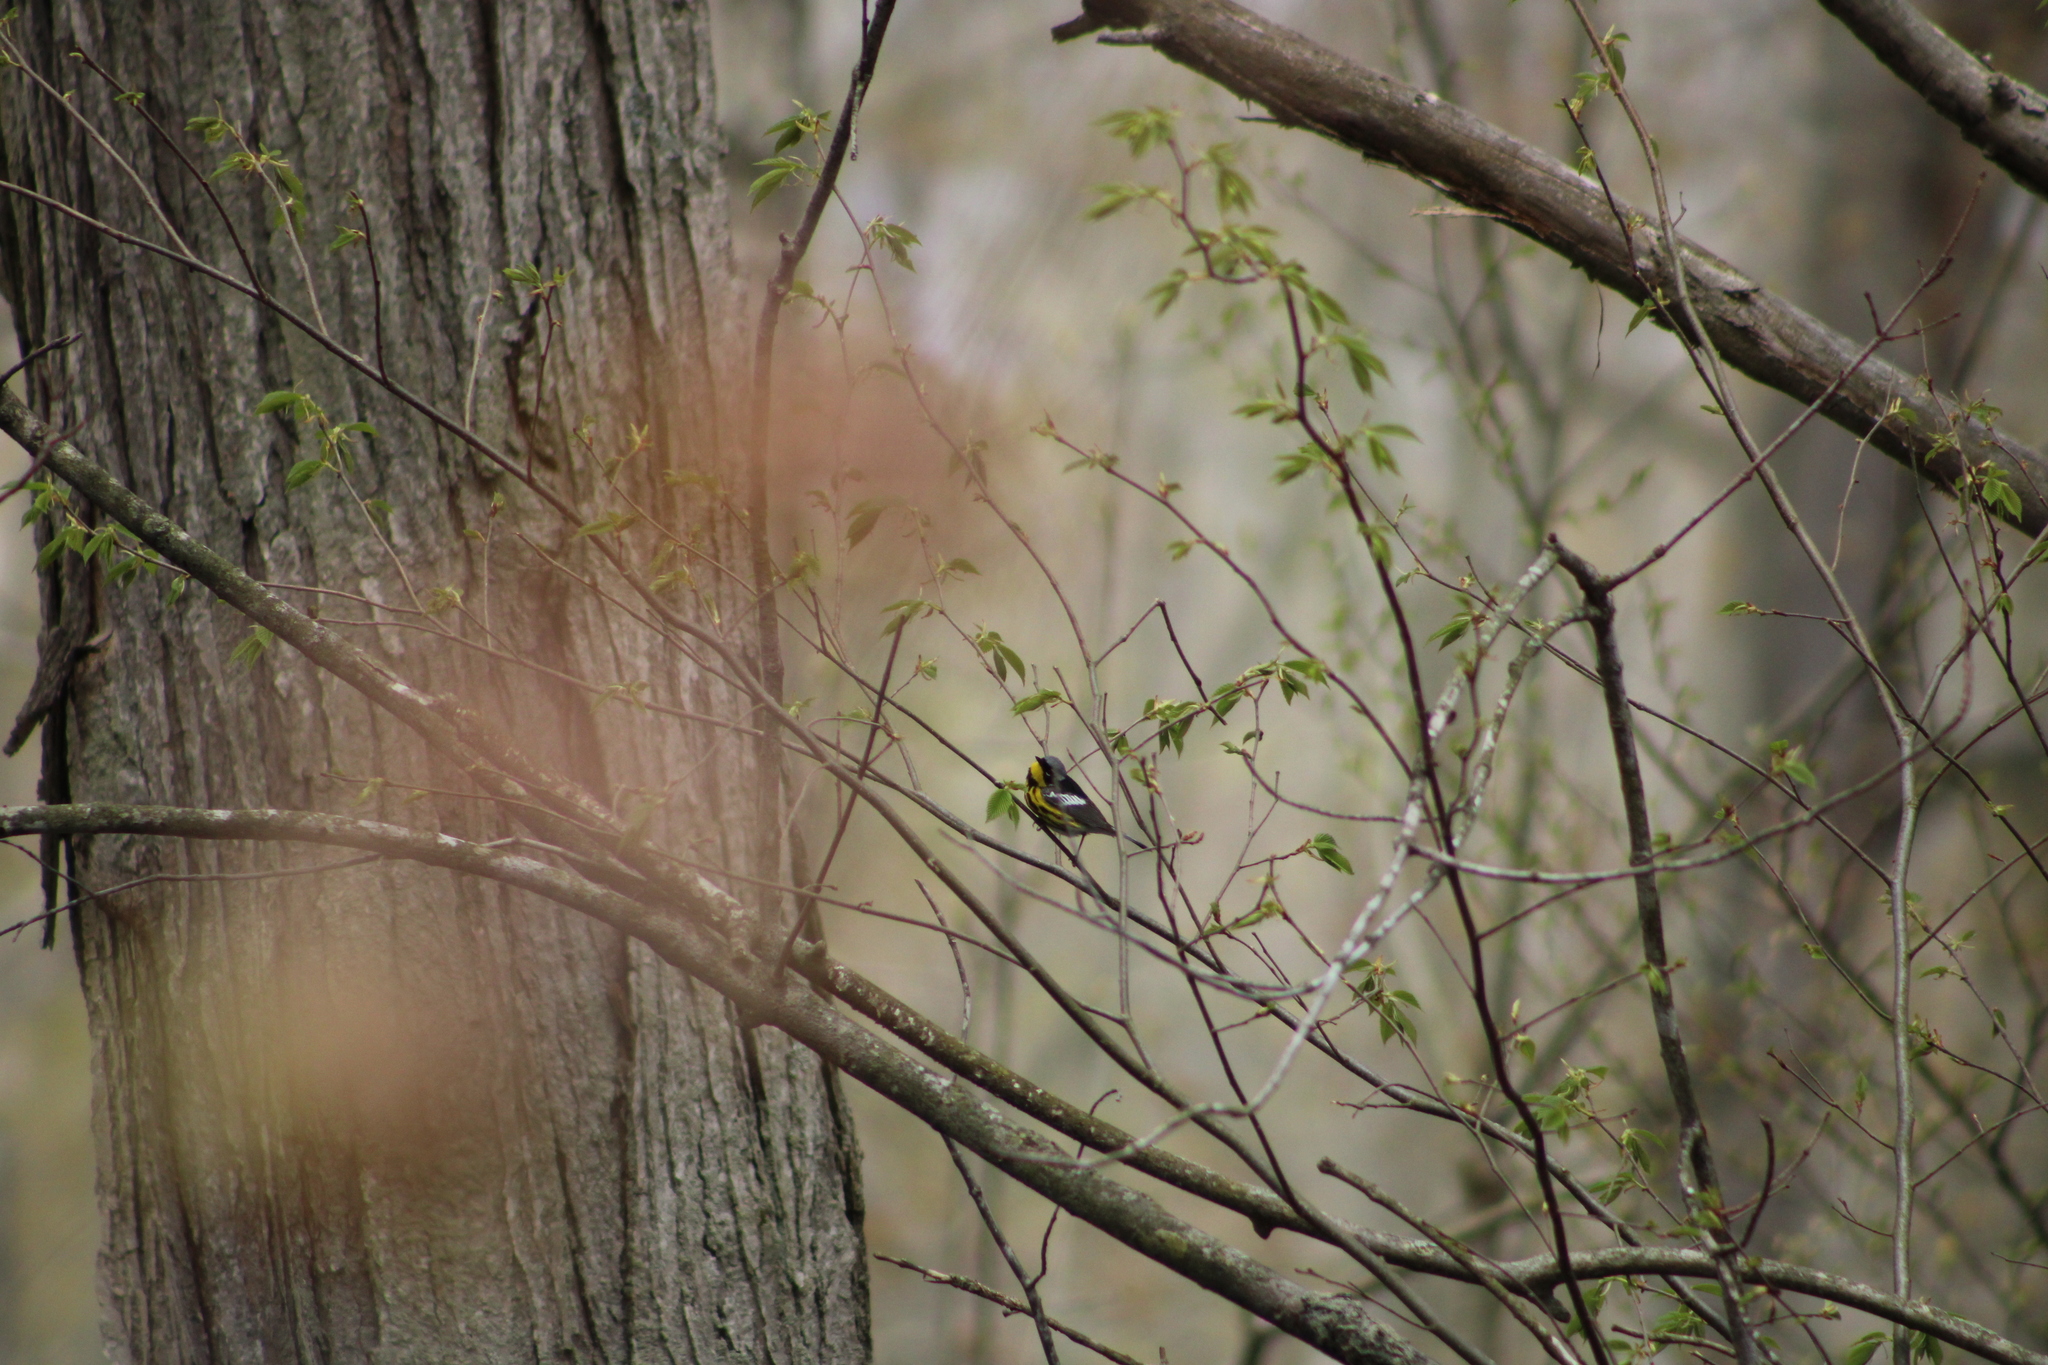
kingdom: Animalia
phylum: Chordata
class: Aves
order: Passeriformes
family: Parulidae
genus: Setophaga
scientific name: Setophaga magnolia
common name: Magnolia warbler
